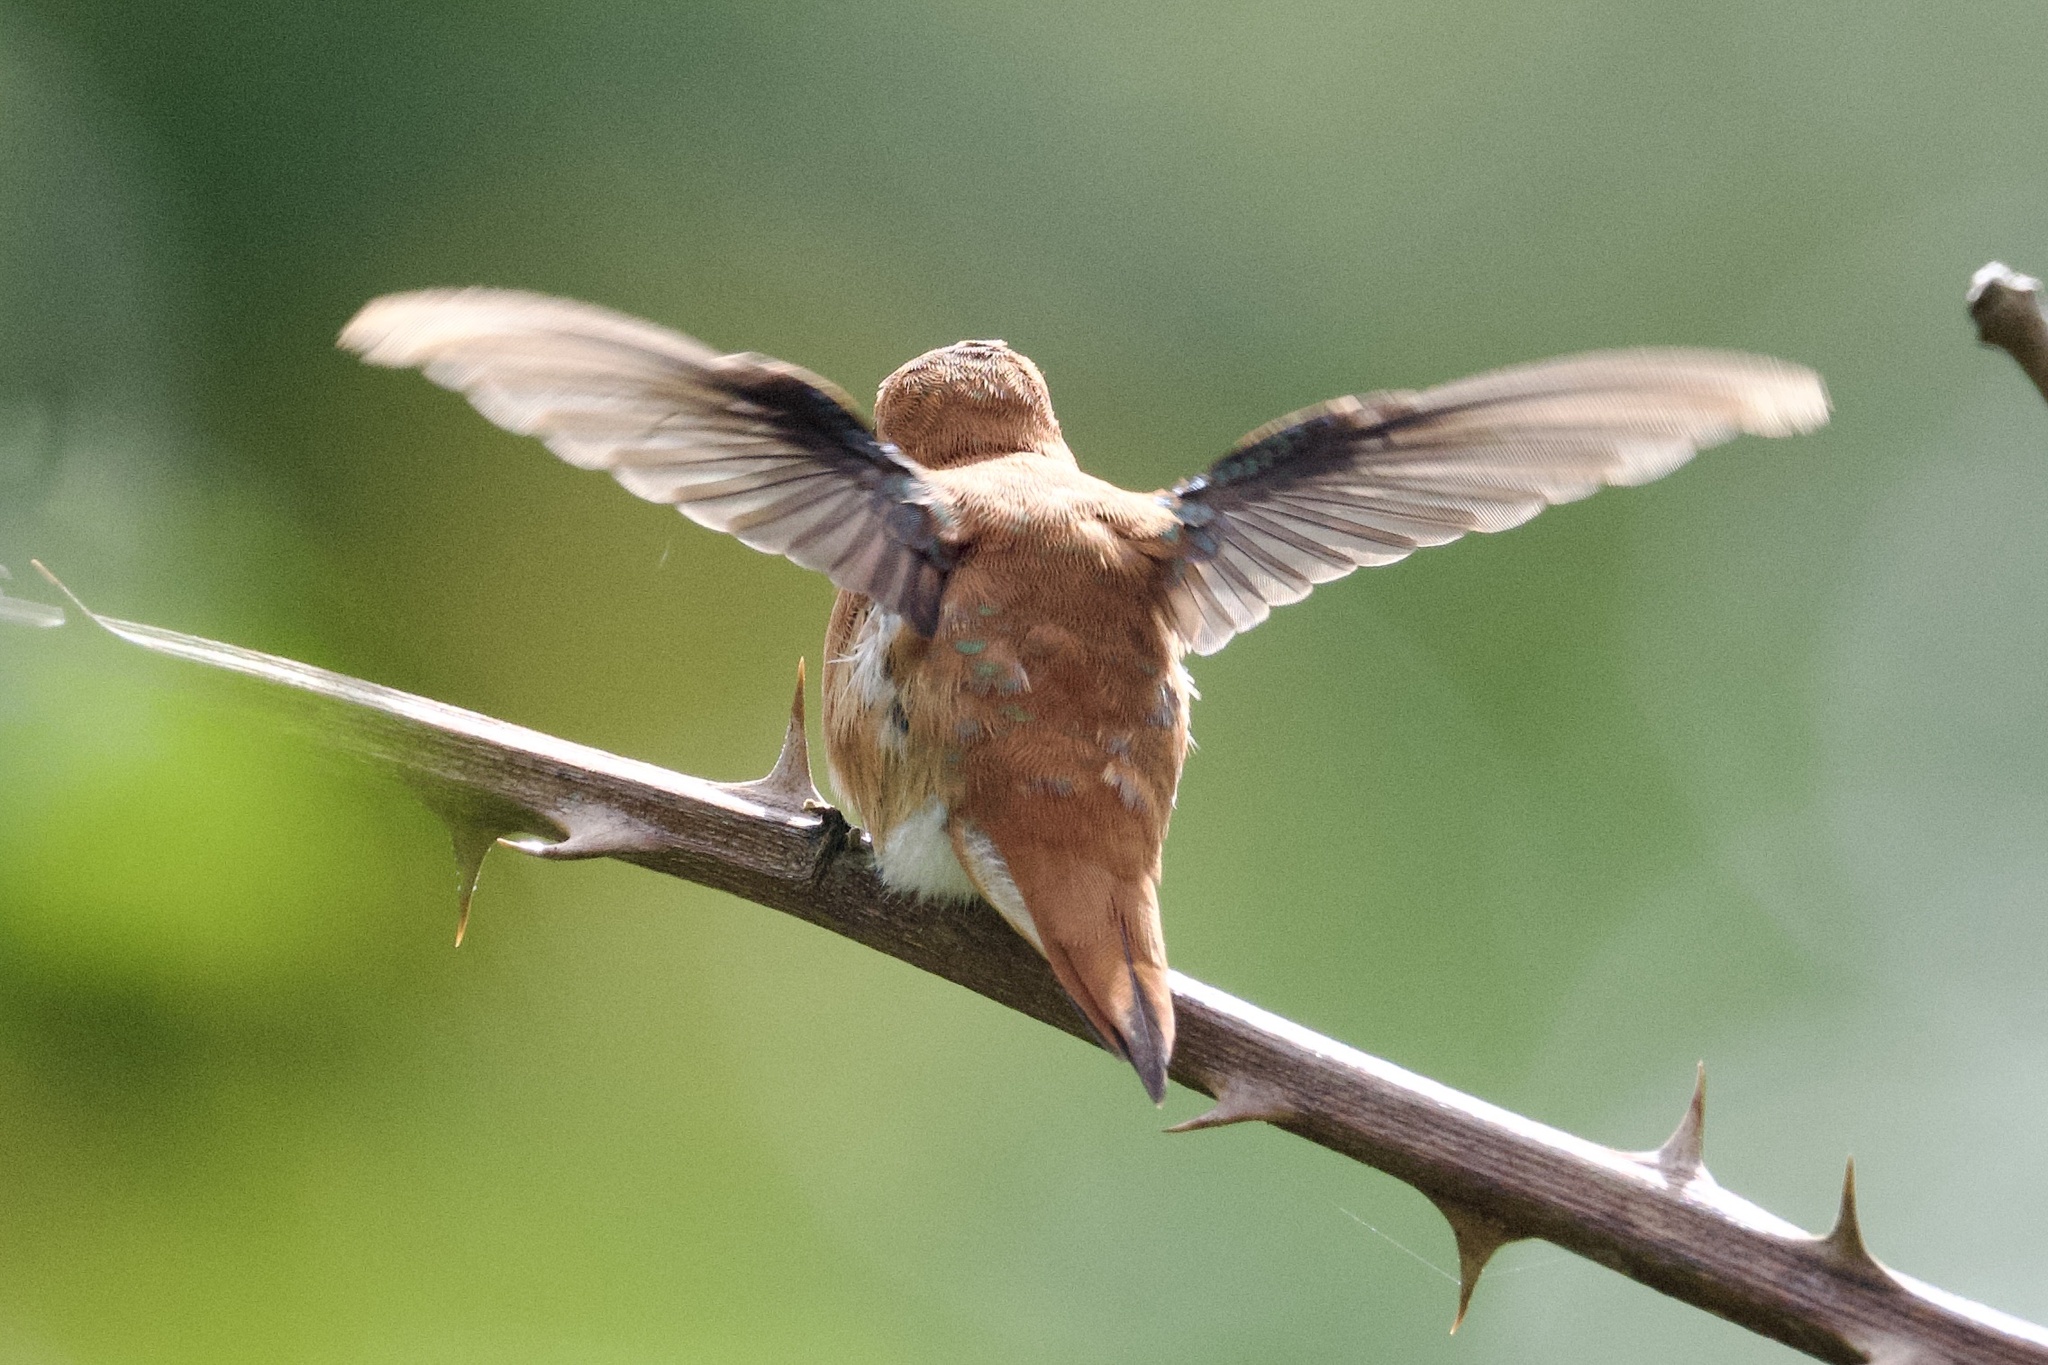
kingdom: Animalia
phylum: Chordata
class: Aves
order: Apodiformes
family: Trochilidae
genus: Selasphorus
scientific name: Selasphorus rufus
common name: Rufous hummingbird
